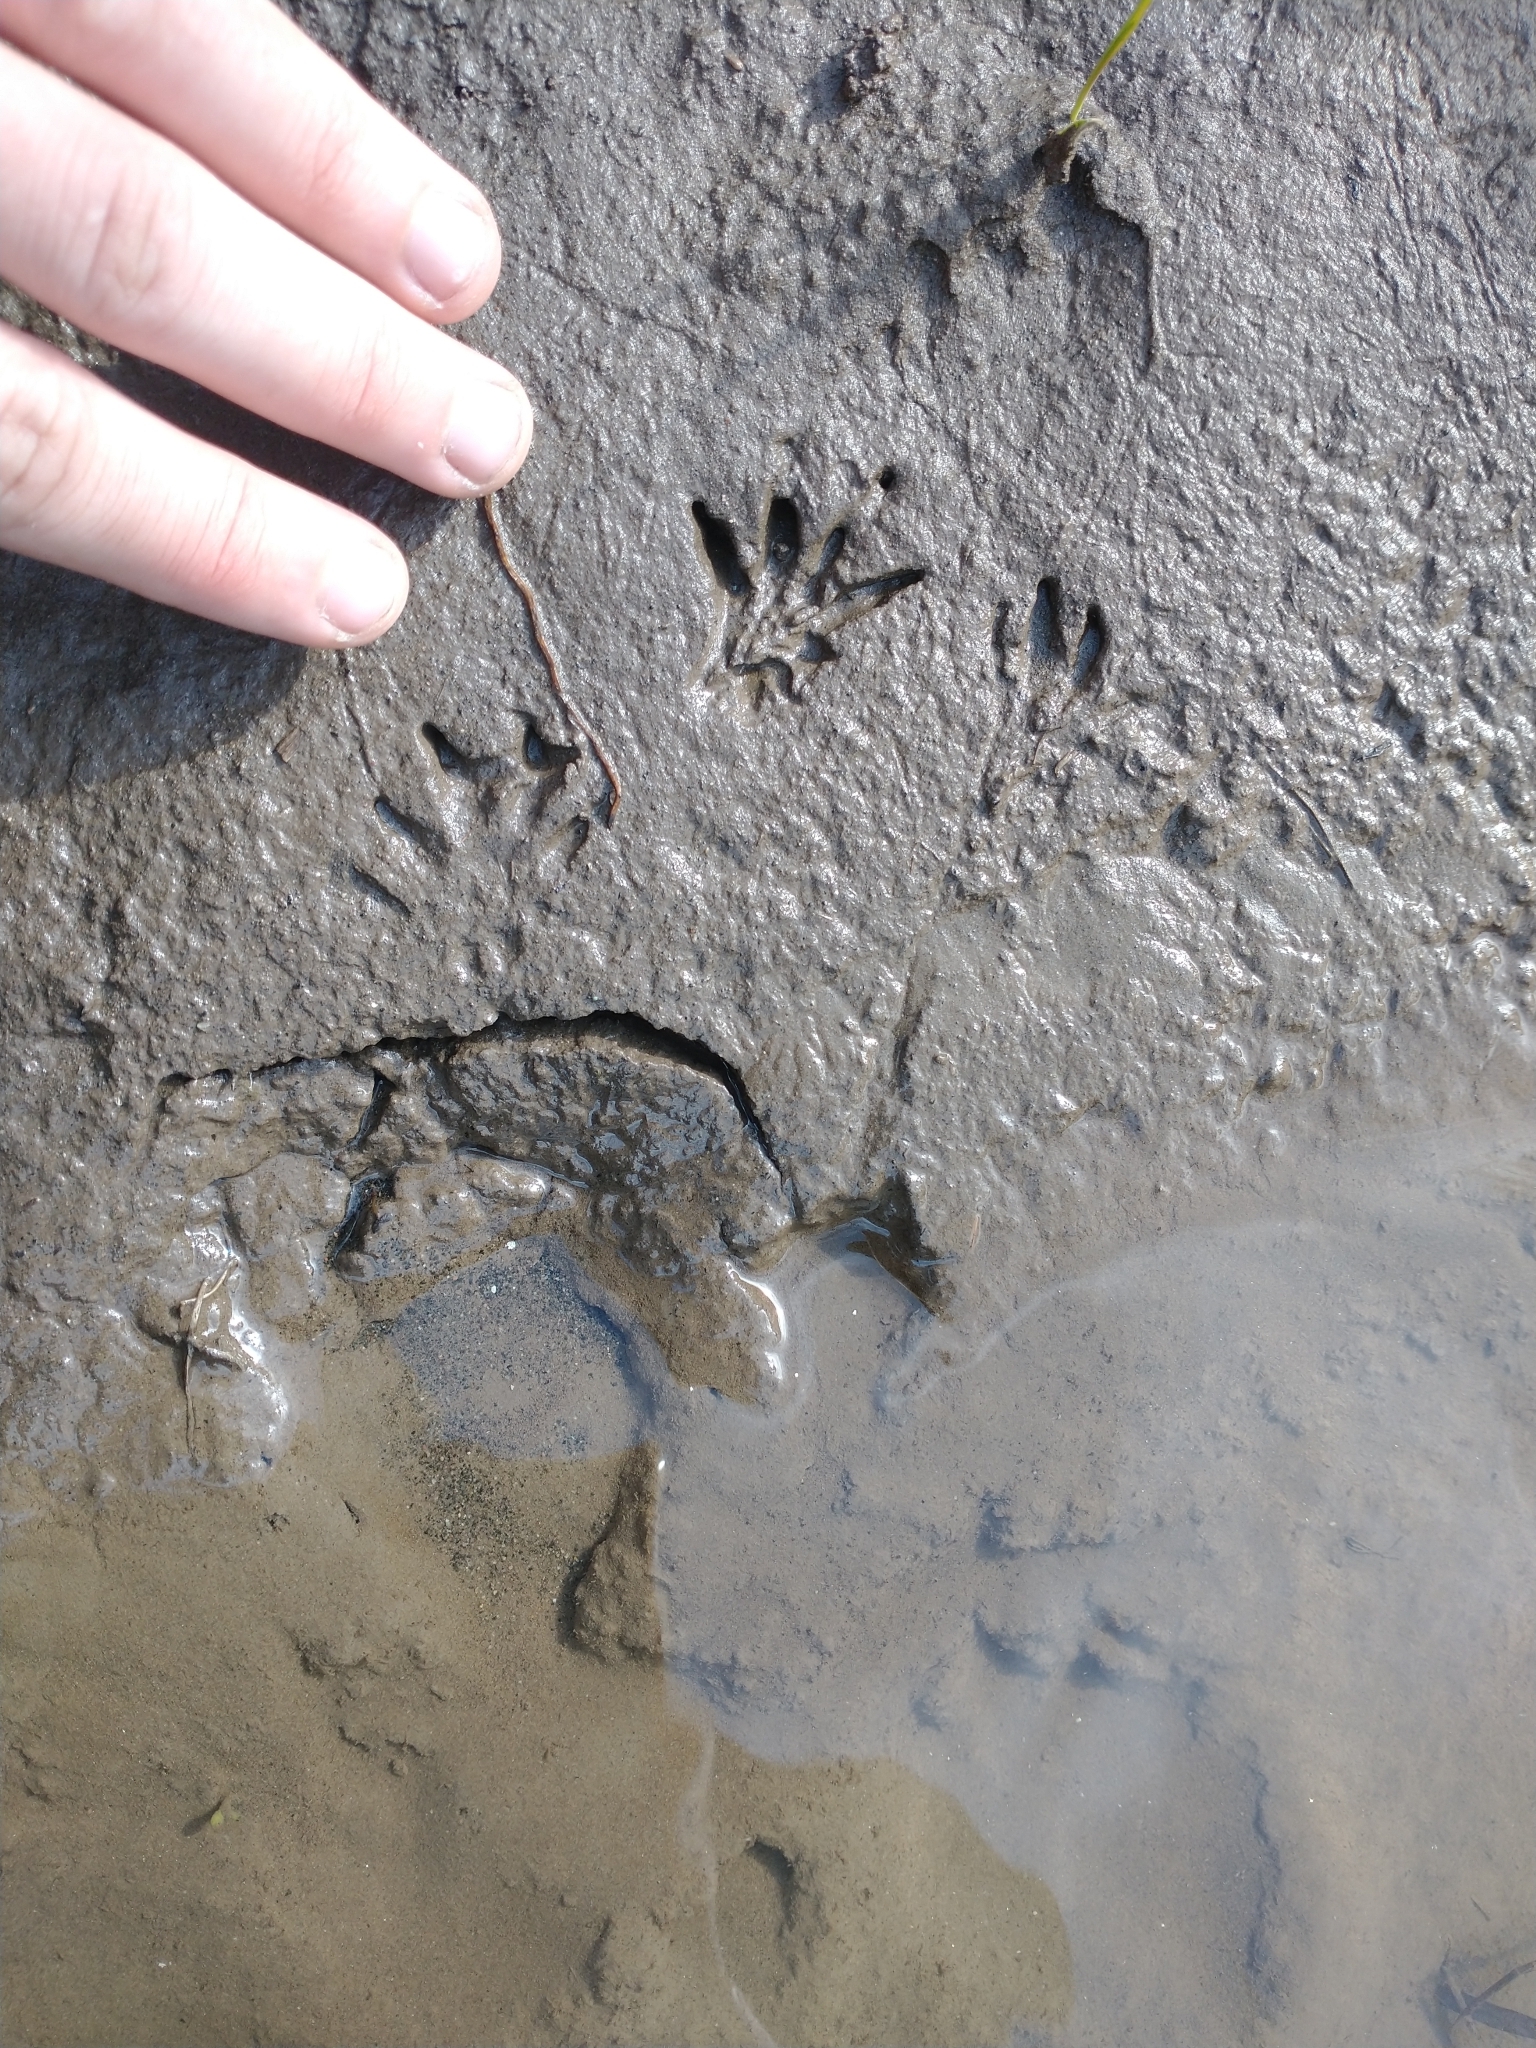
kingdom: Animalia
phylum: Chordata
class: Mammalia
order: Rodentia
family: Cricetidae
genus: Ondatra
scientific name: Ondatra zibethicus
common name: Muskrat
